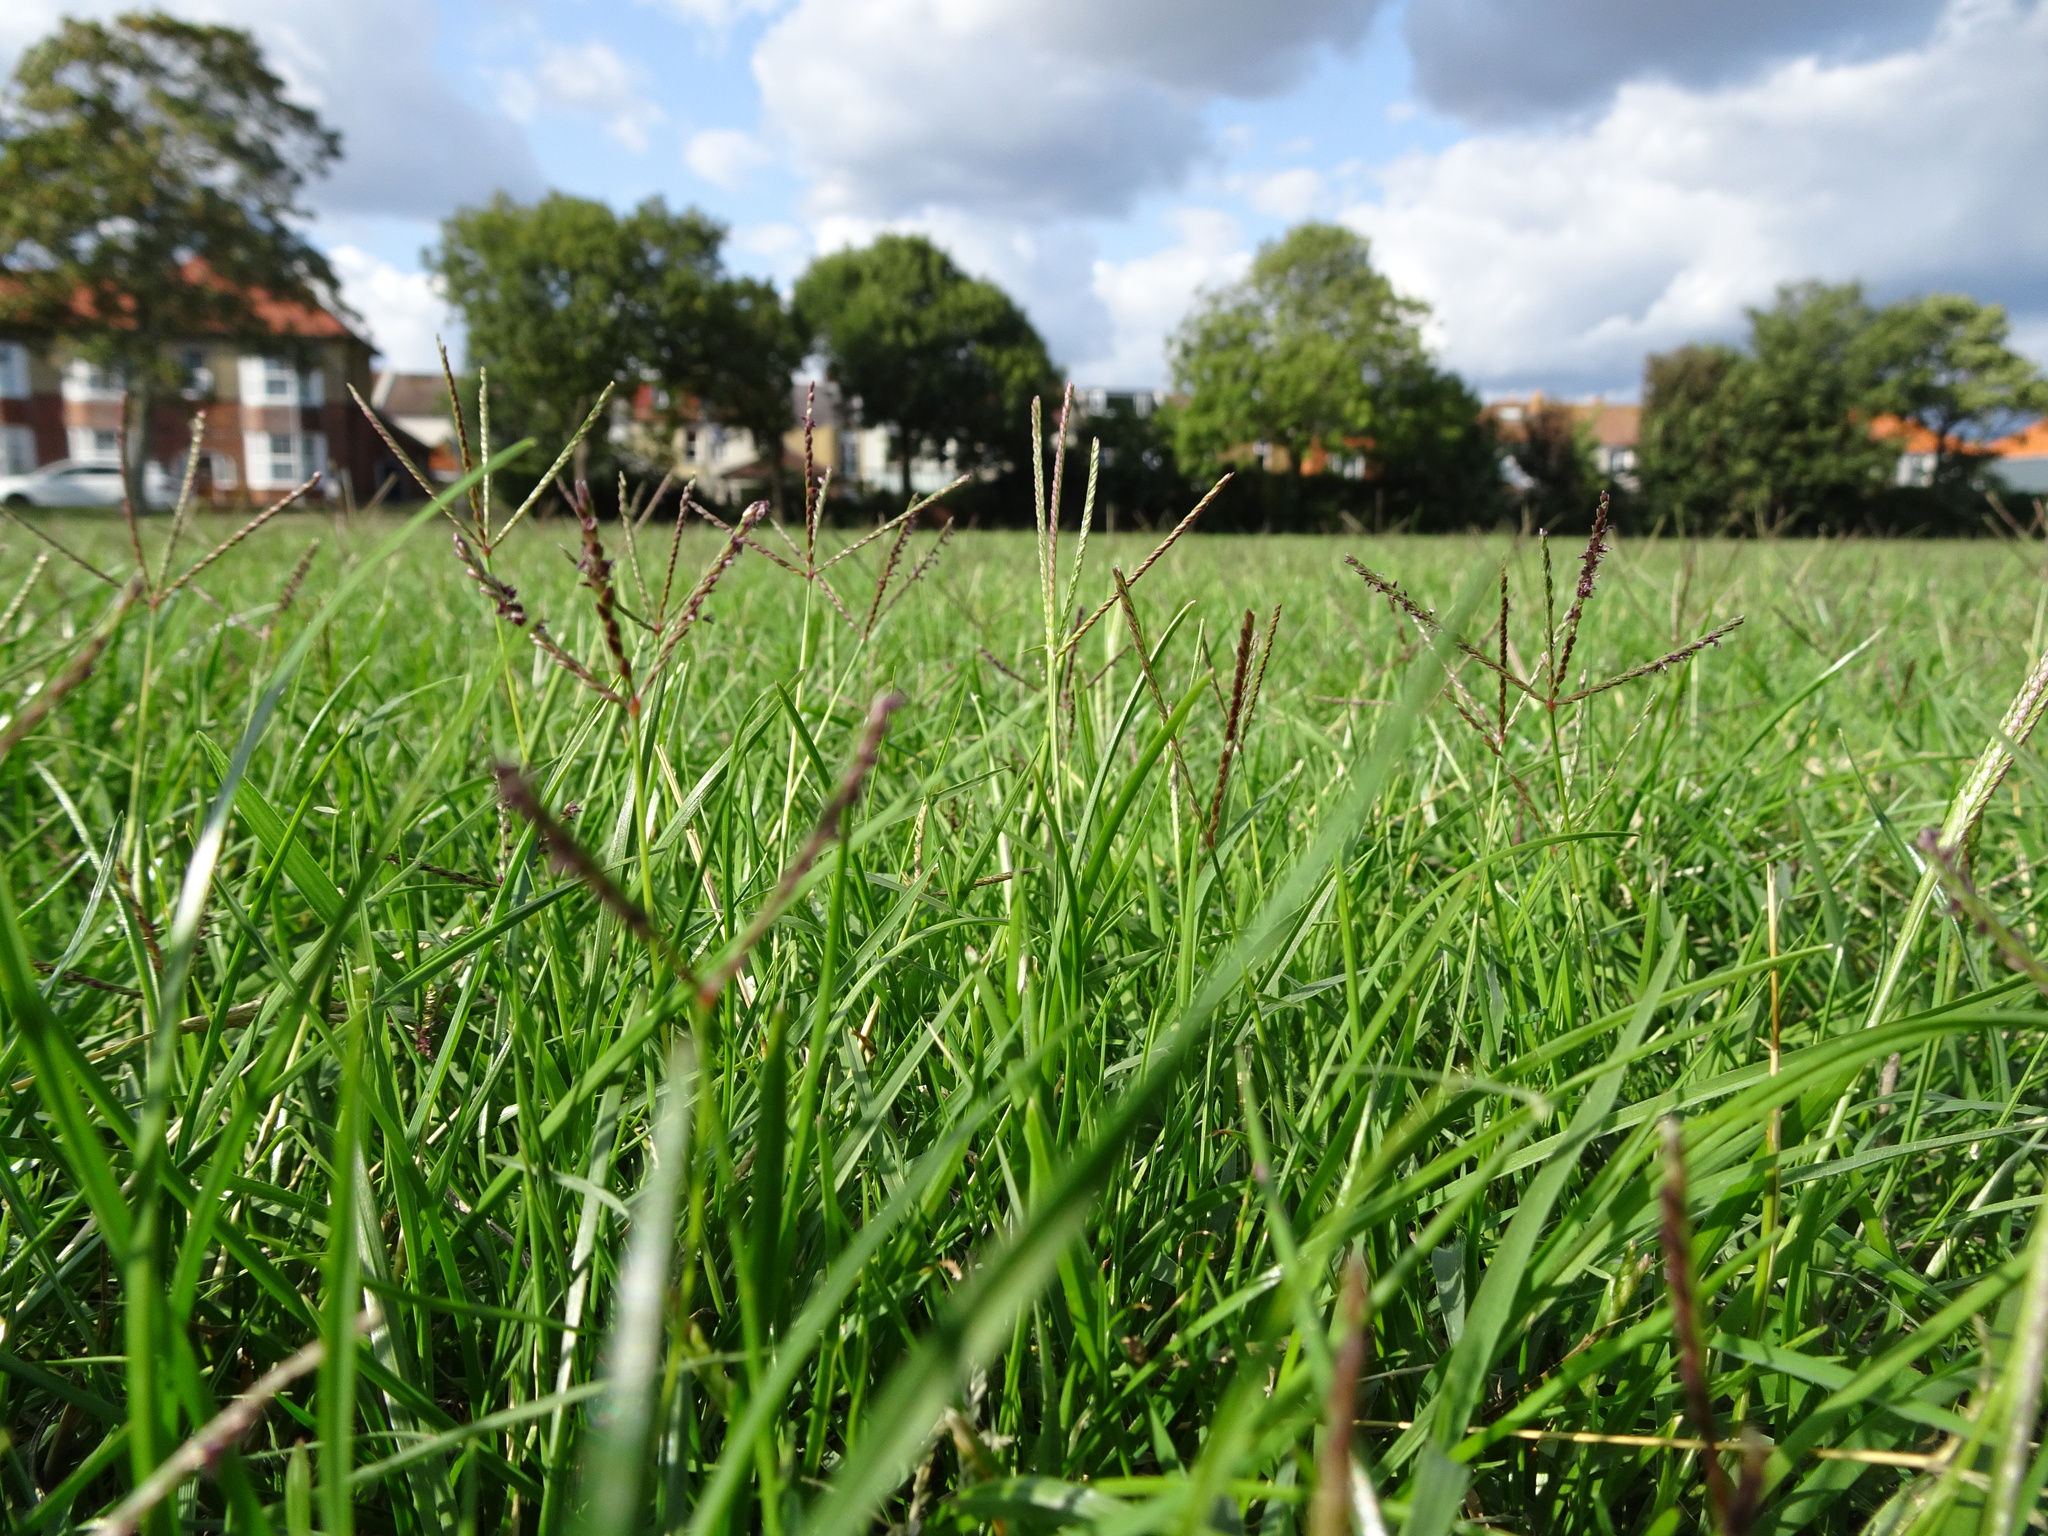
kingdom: Plantae
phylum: Tracheophyta
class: Liliopsida
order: Poales
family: Poaceae
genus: Cynodon
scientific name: Cynodon dactylon
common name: Bermuda grass
